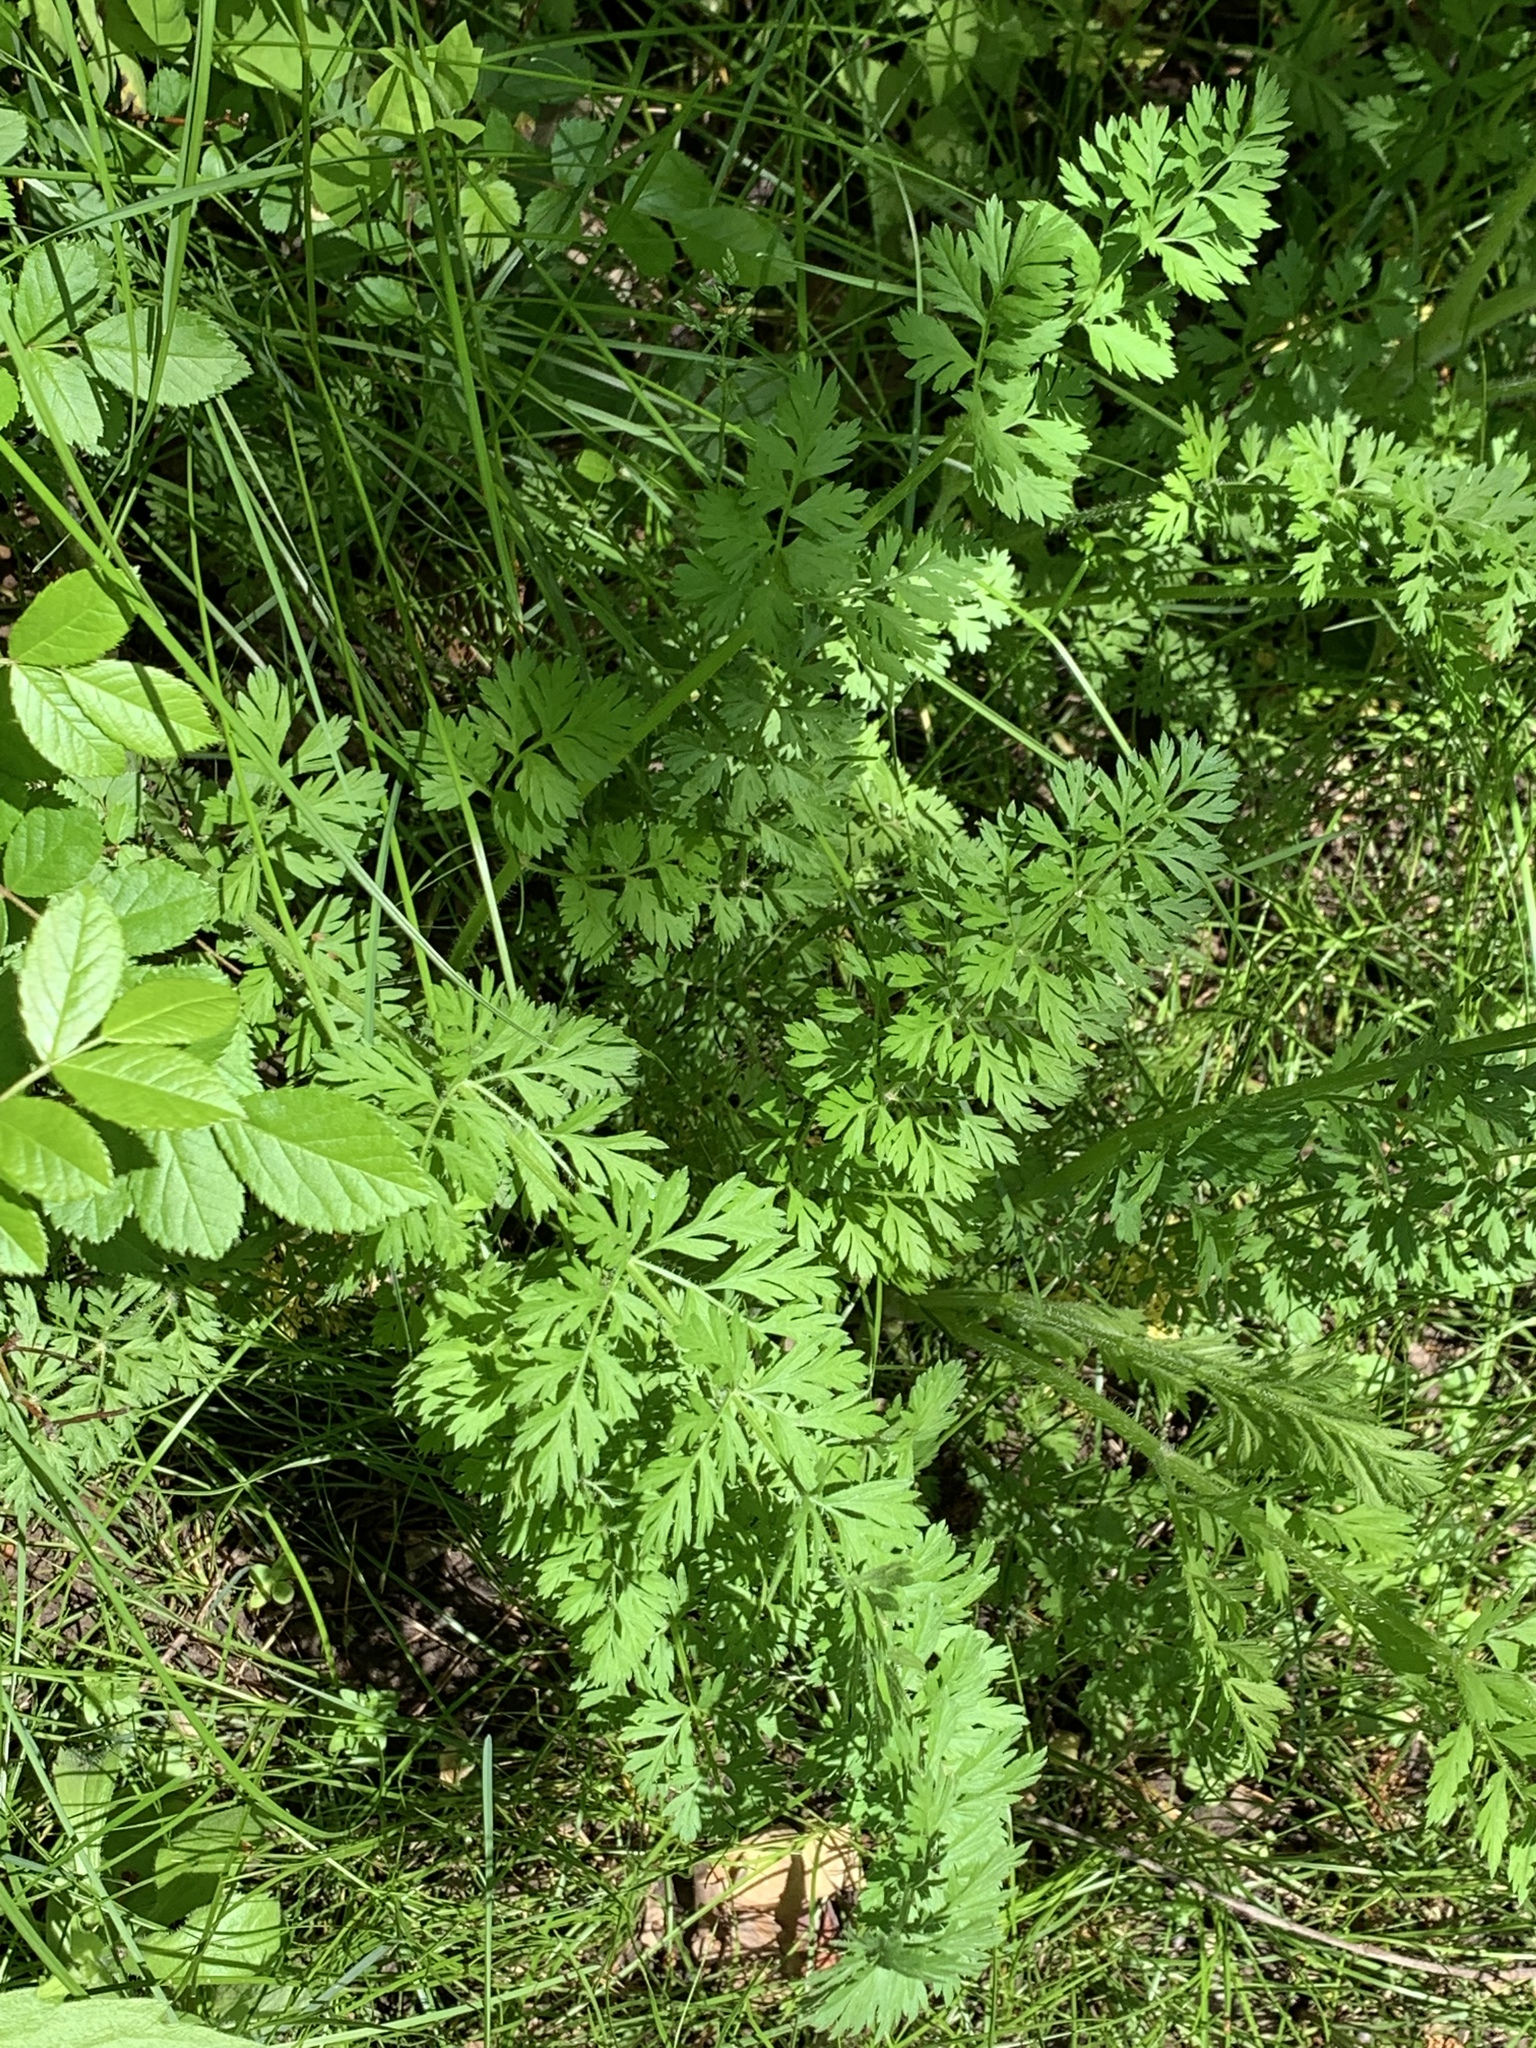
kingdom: Plantae
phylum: Tracheophyta
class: Magnoliopsida
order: Apiales
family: Apiaceae
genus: Daucus
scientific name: Daucus carota
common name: Wild carrot
